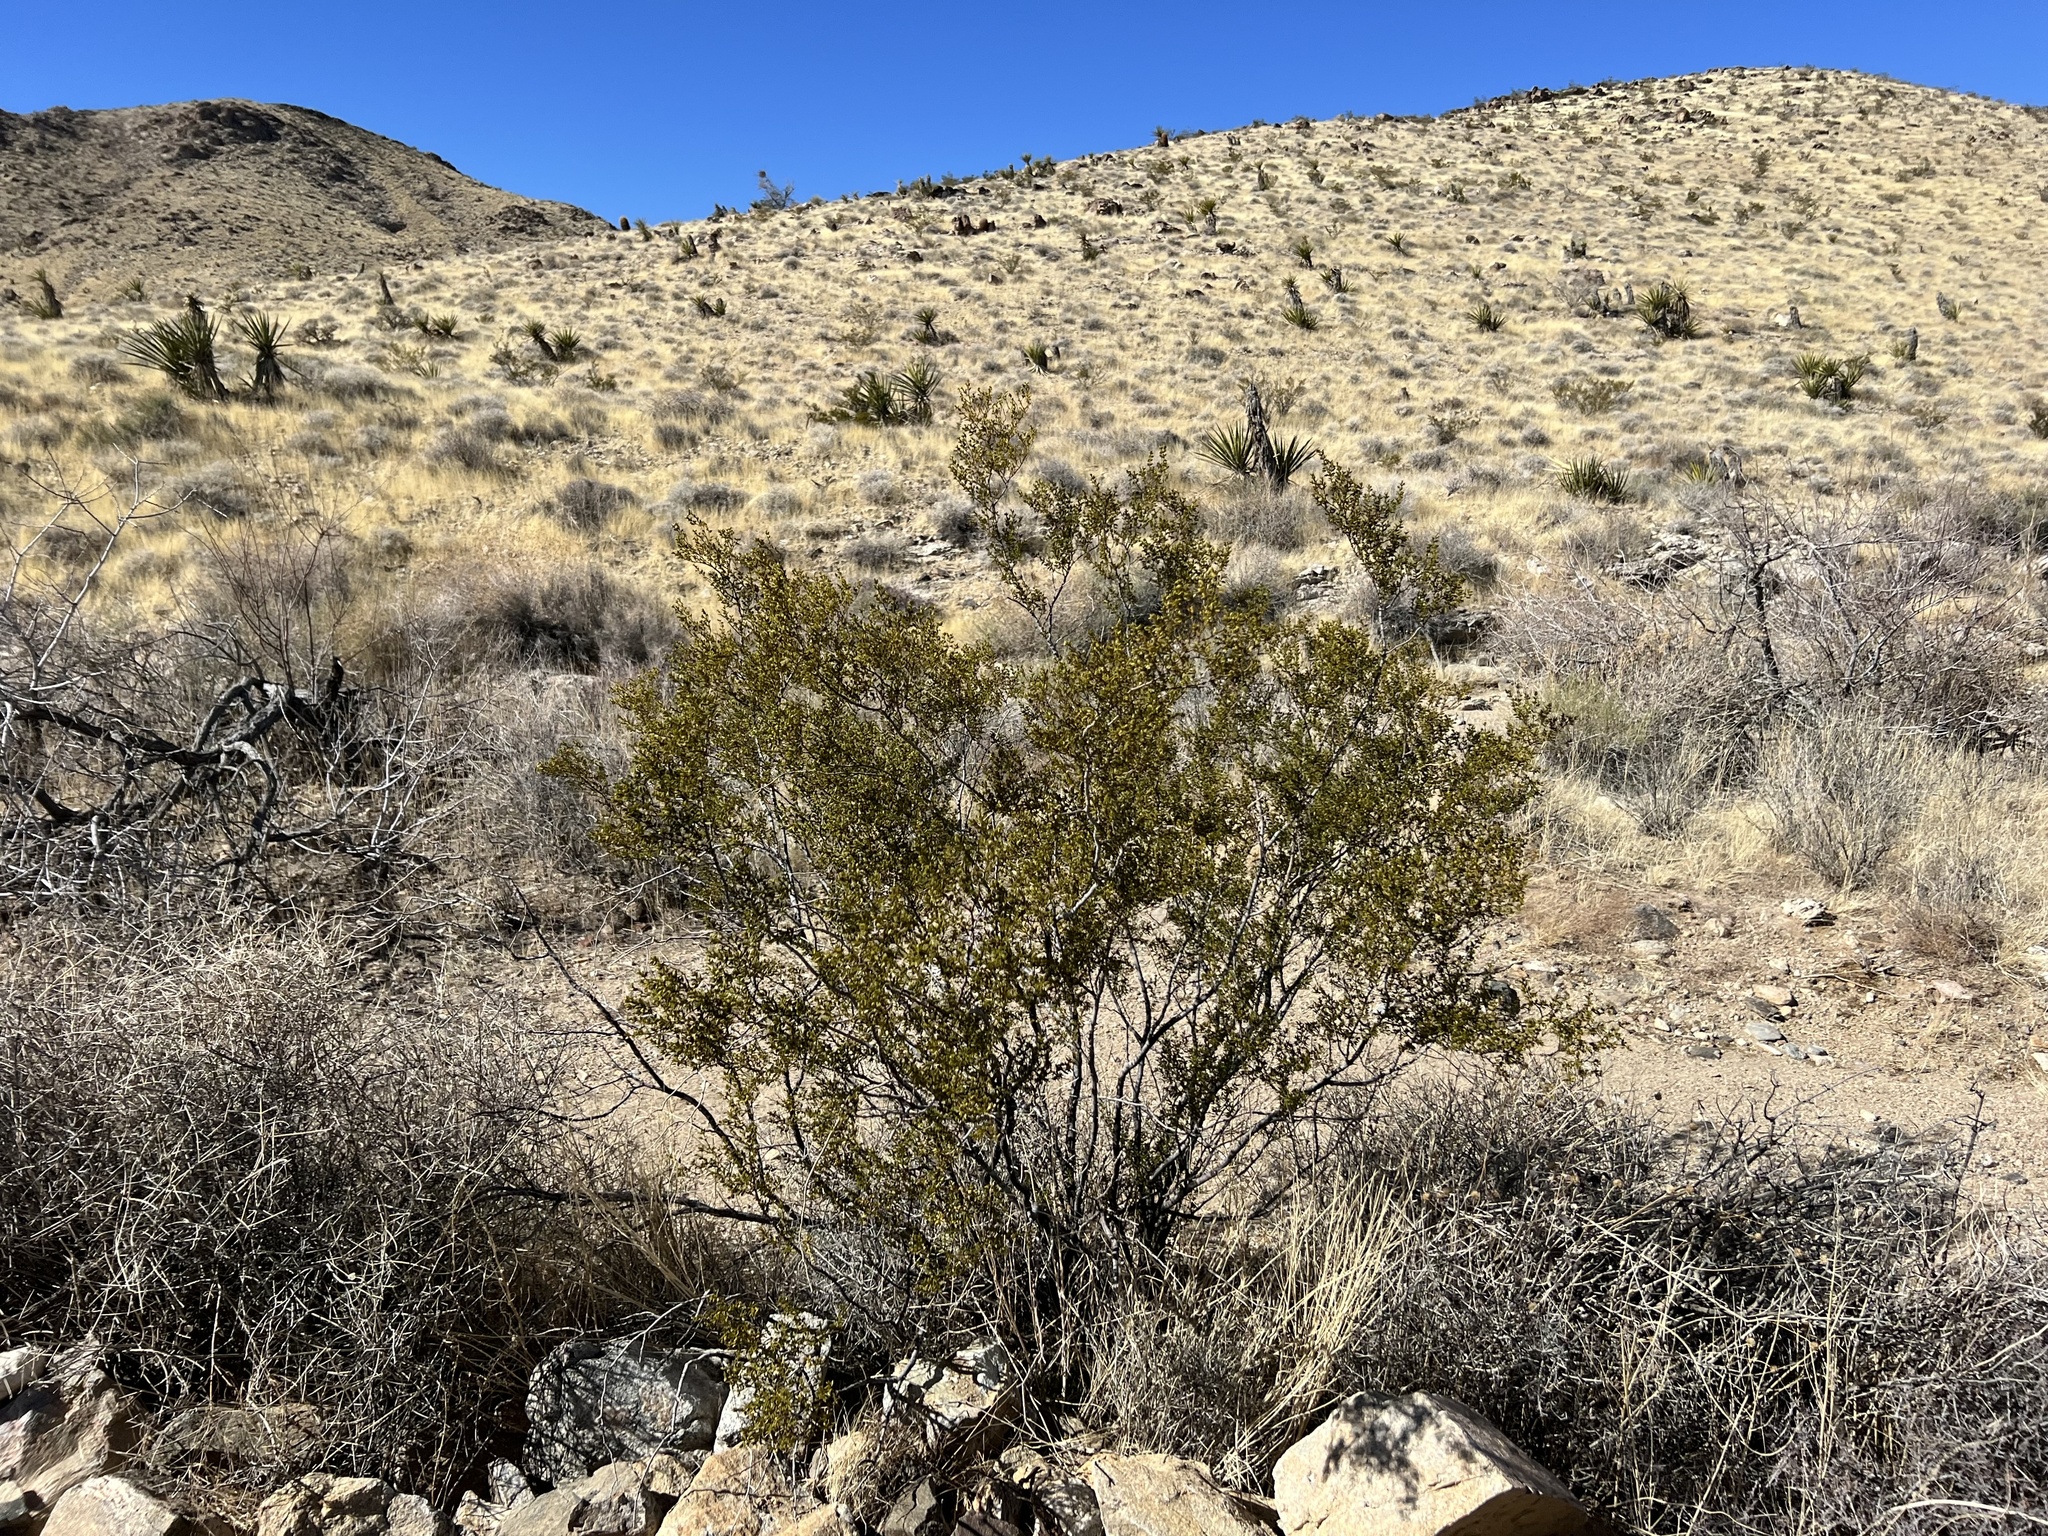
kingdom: Plantae
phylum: Tracheophyta
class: Magnoliopsida
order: Zygophyllales
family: Zygophyllaceae
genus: Larrea
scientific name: Larrea tridentata
